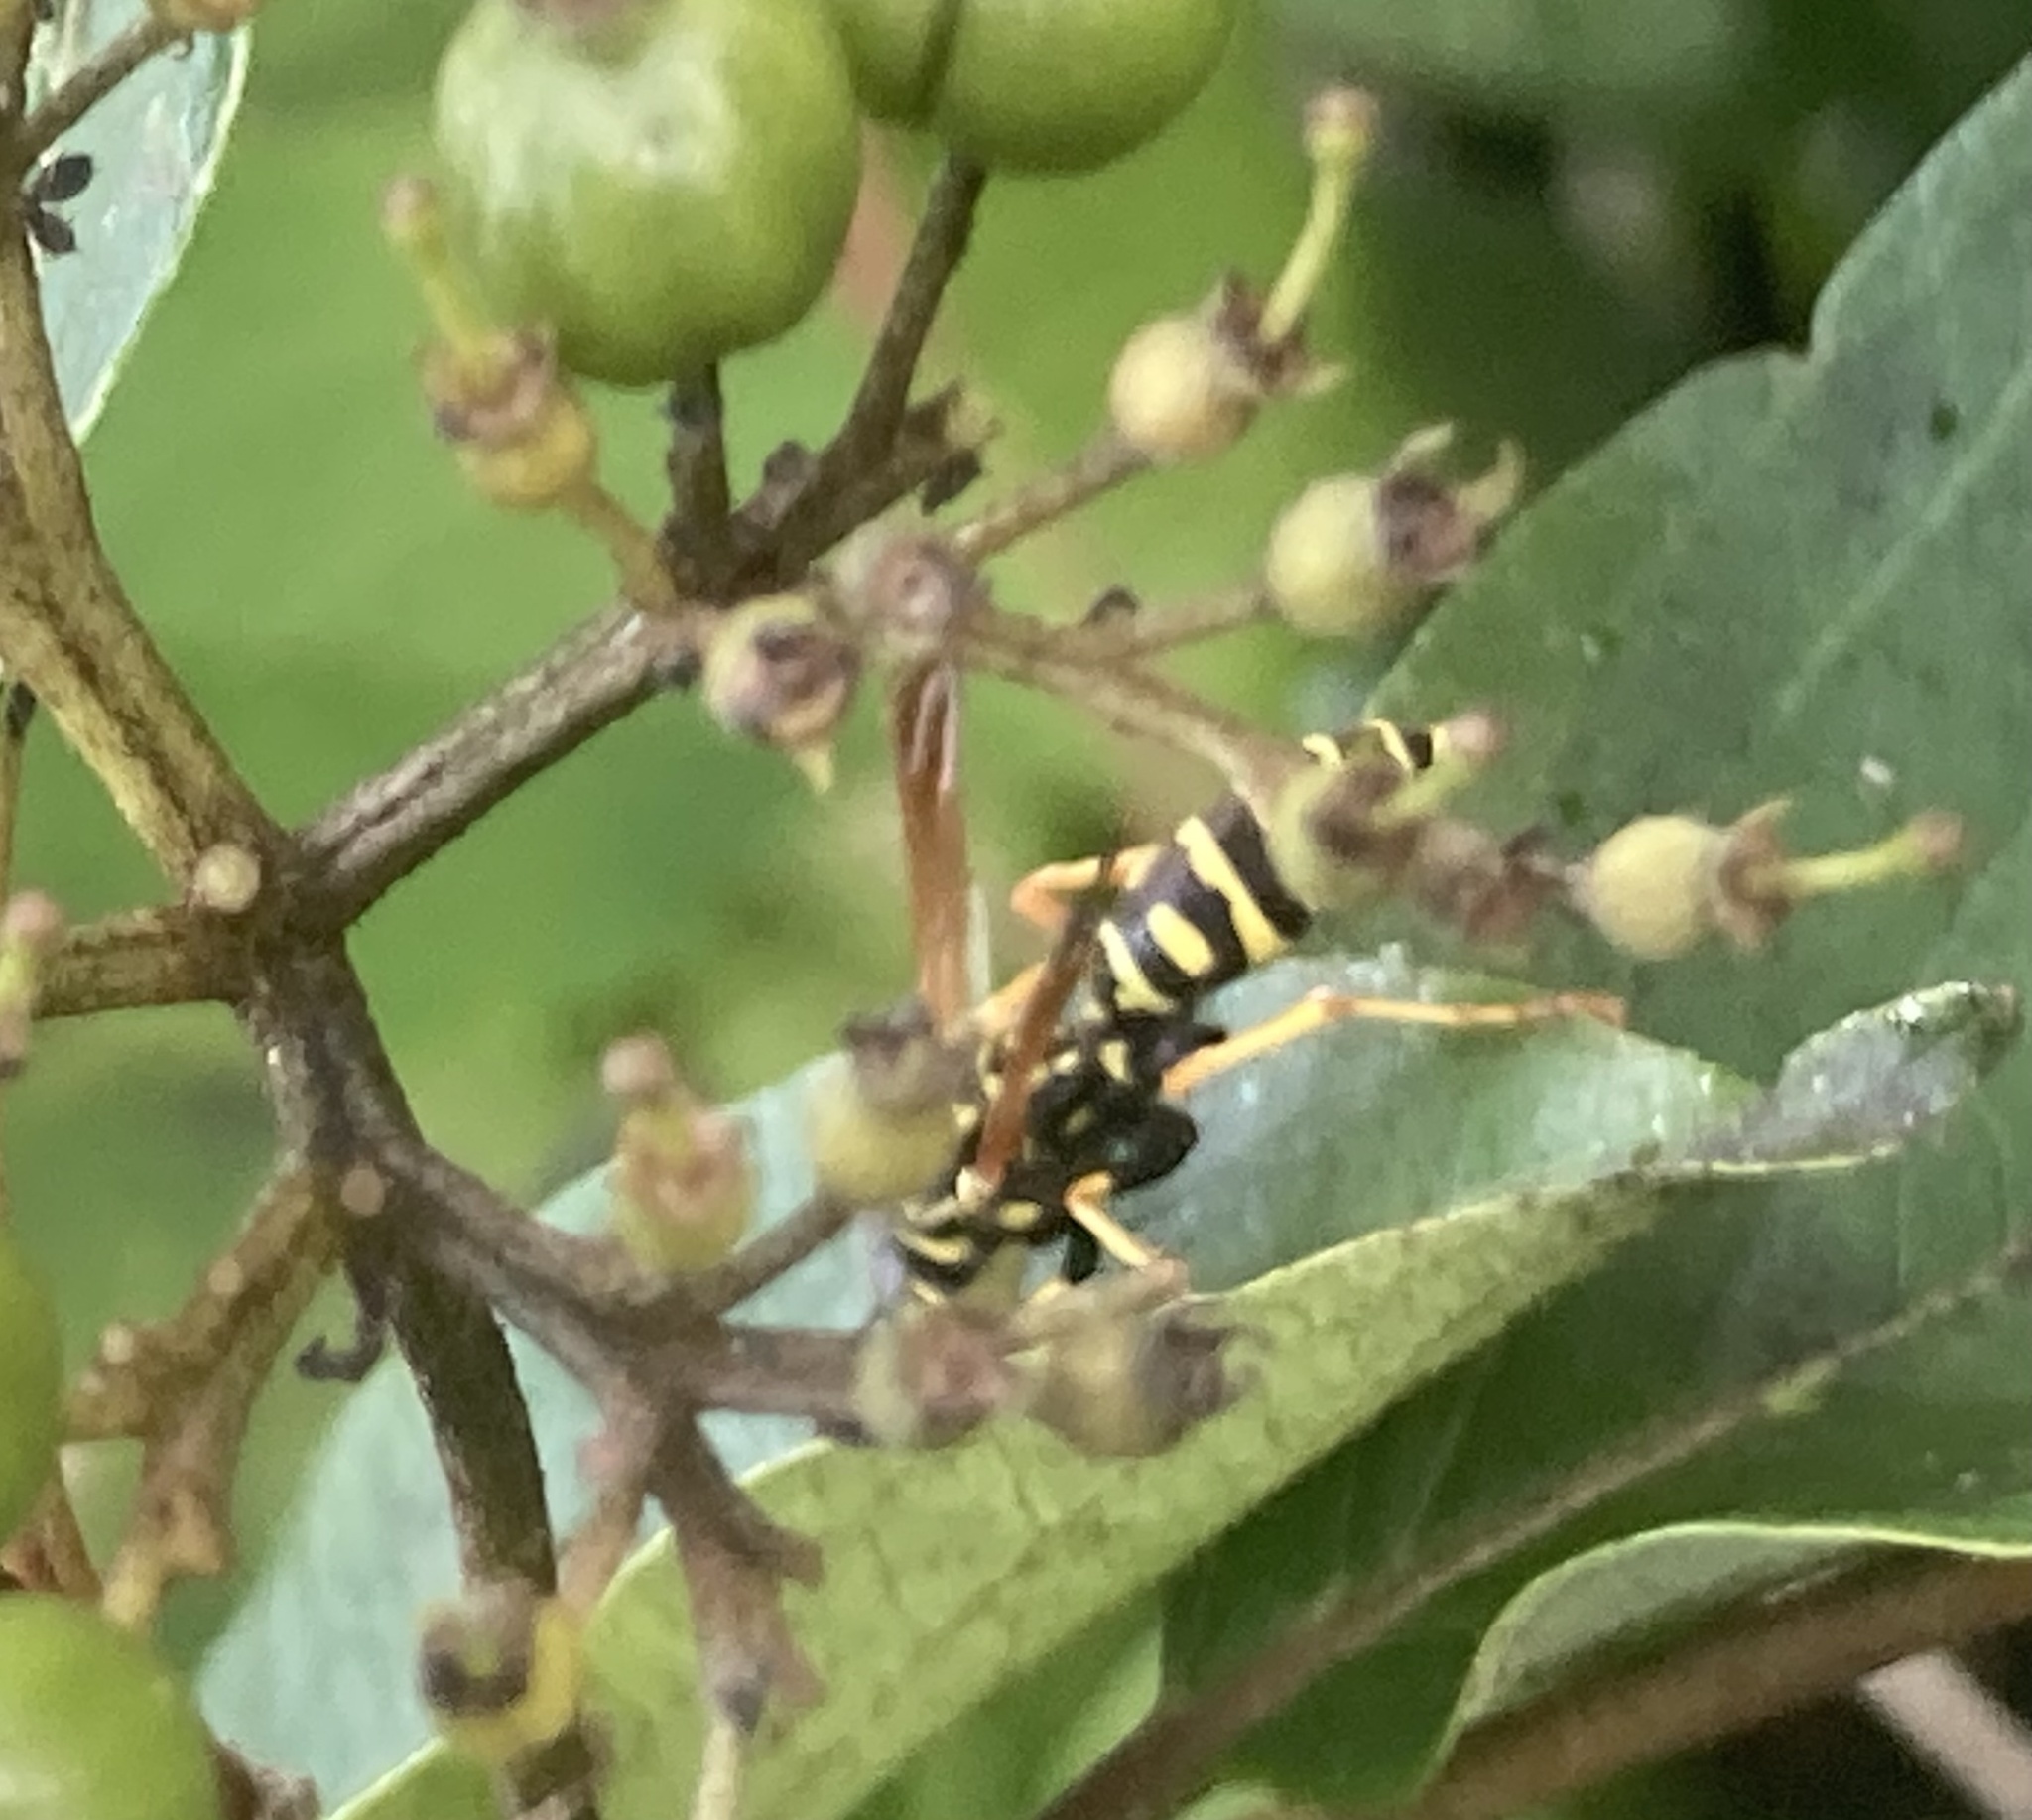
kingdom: Animalia
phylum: Arthropoda
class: Insecta
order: Hymenoptera
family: Eumenidae
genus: Polistes
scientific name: Polistes dominula
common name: Paper wasp
